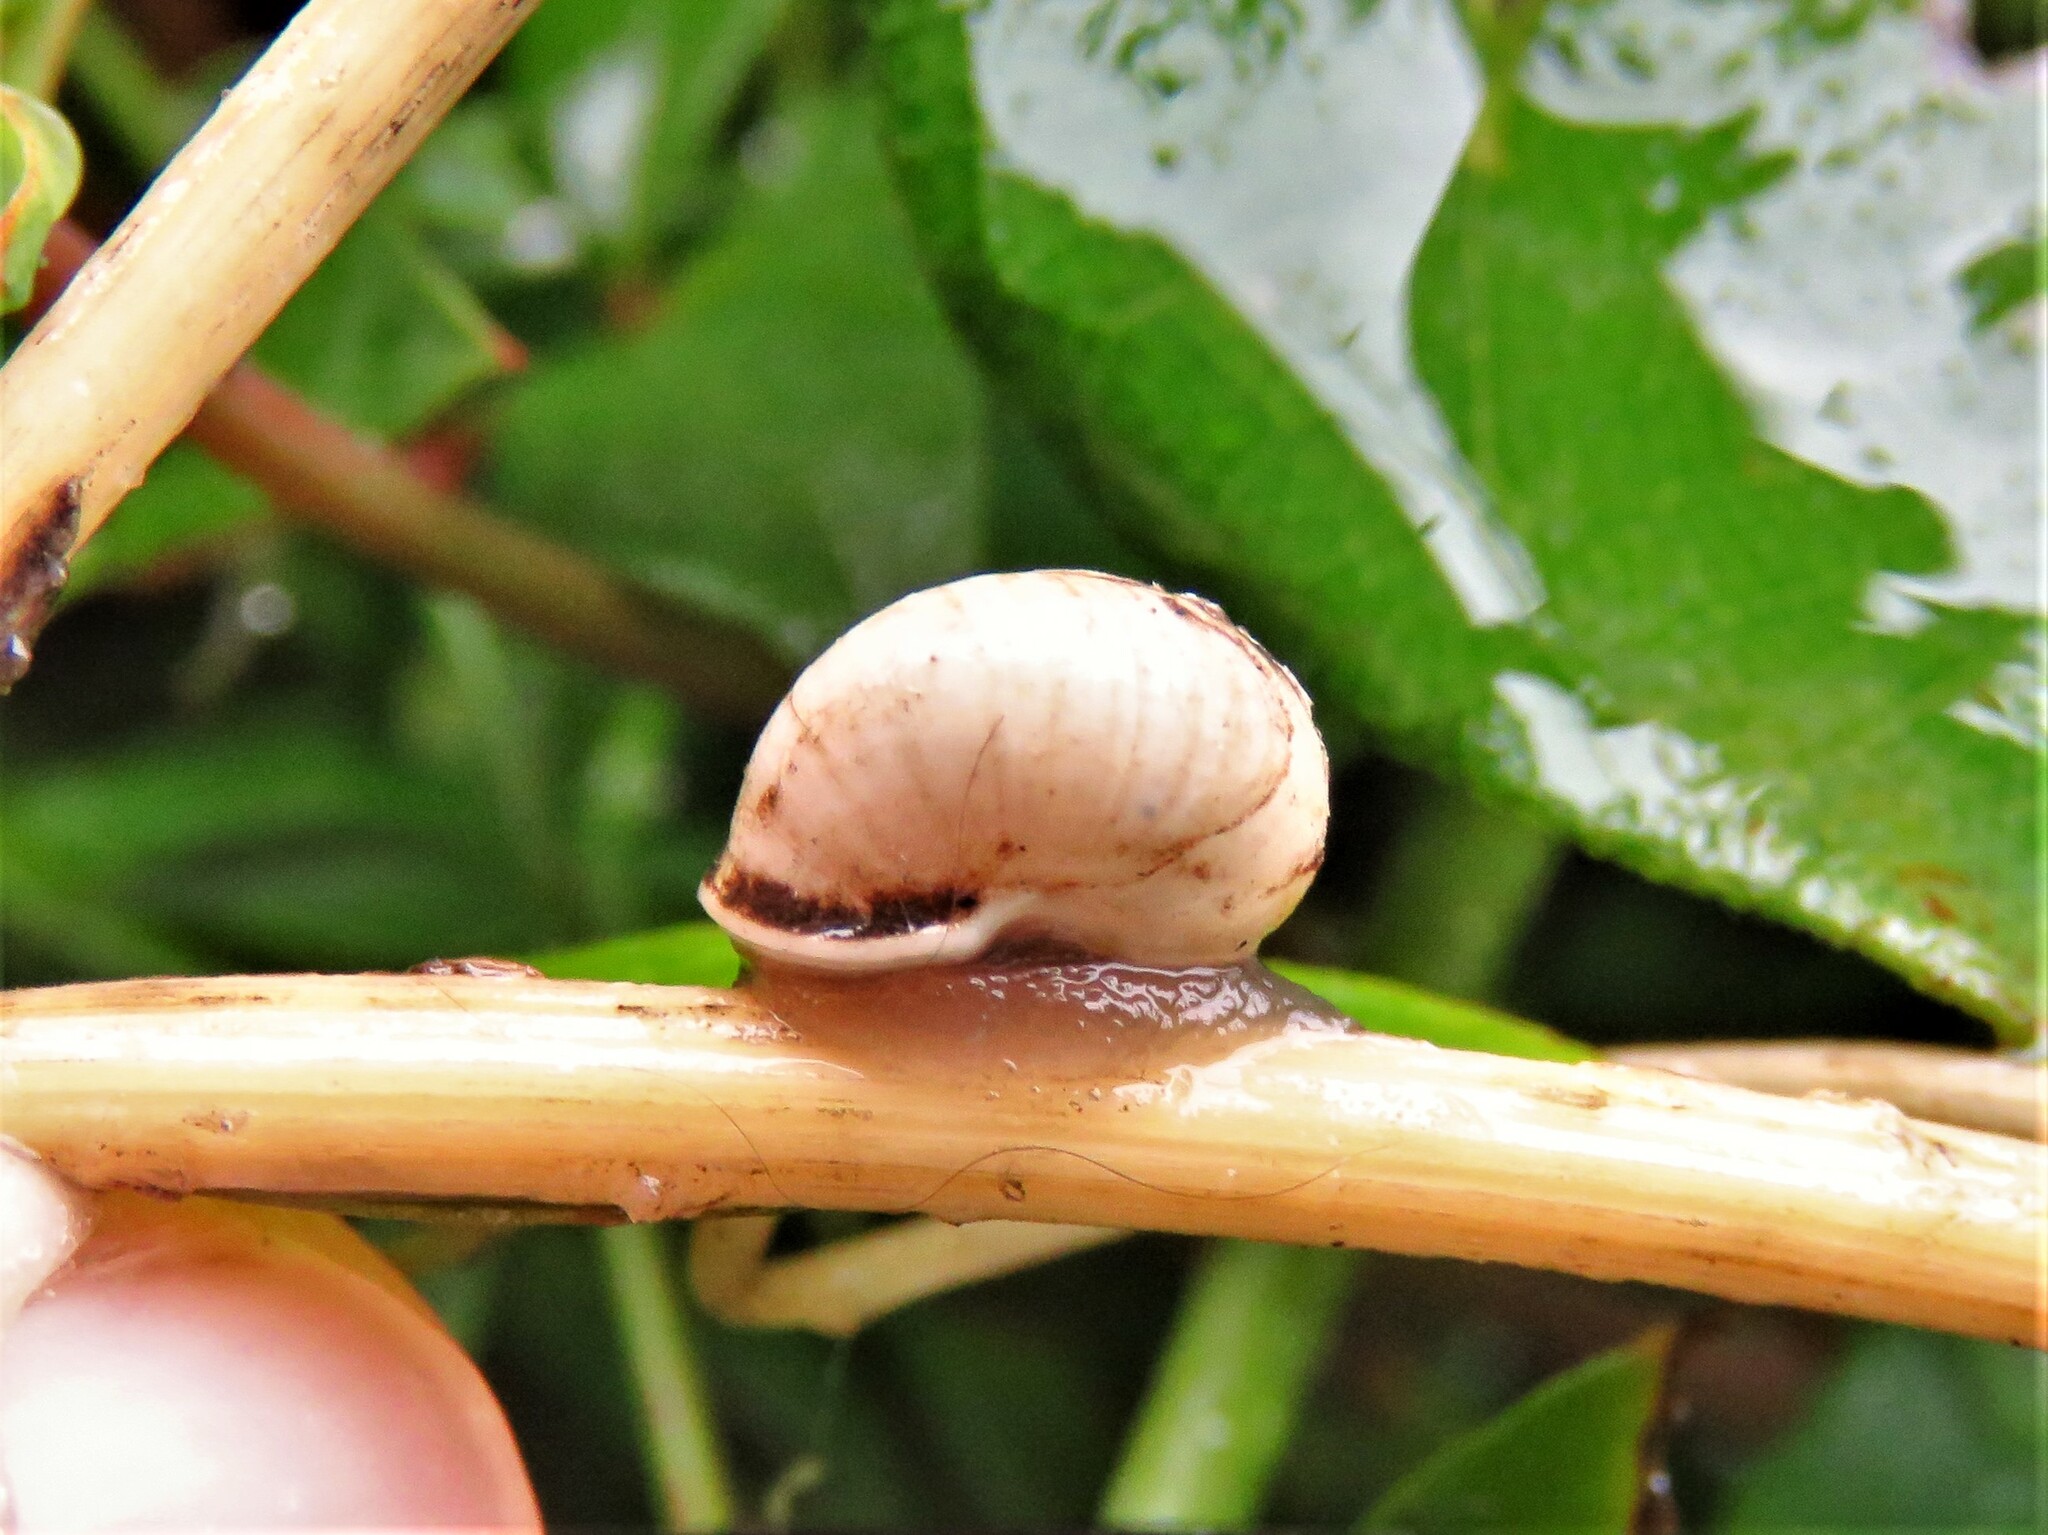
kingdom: Animalia
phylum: Mollusca
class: Gastropoda
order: Cycloneritida
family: Helicinidae
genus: Helicina
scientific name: Helicina orbiculata
